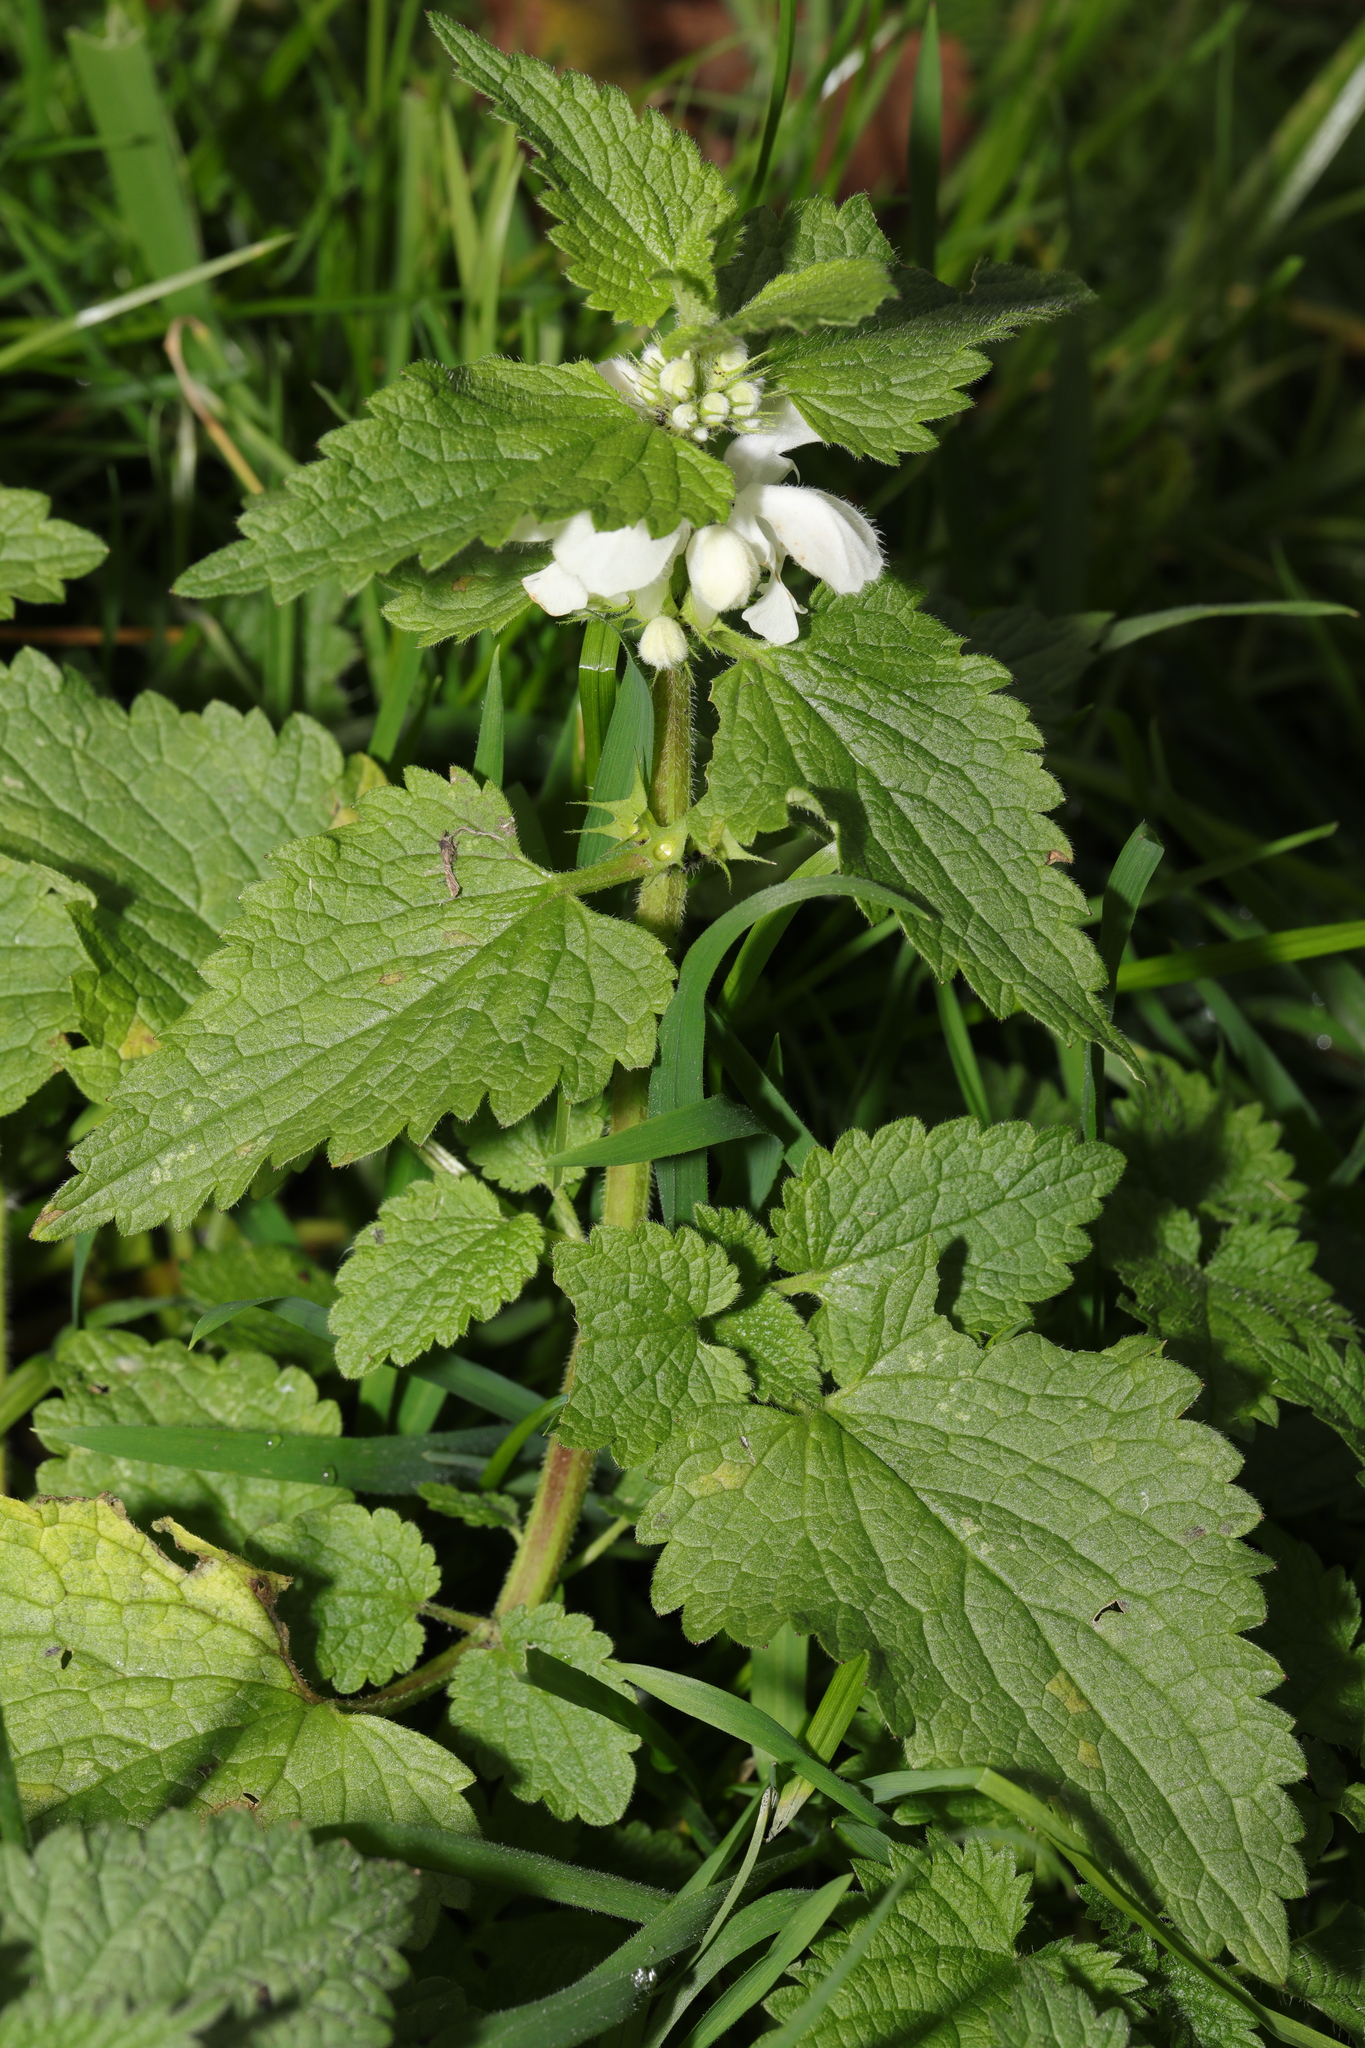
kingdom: Plantae
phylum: Tracheophyta
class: Magnoliopsida
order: Lamiales
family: Lamiaceae
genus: Lamium
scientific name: Lamium album
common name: White dead-nettle
